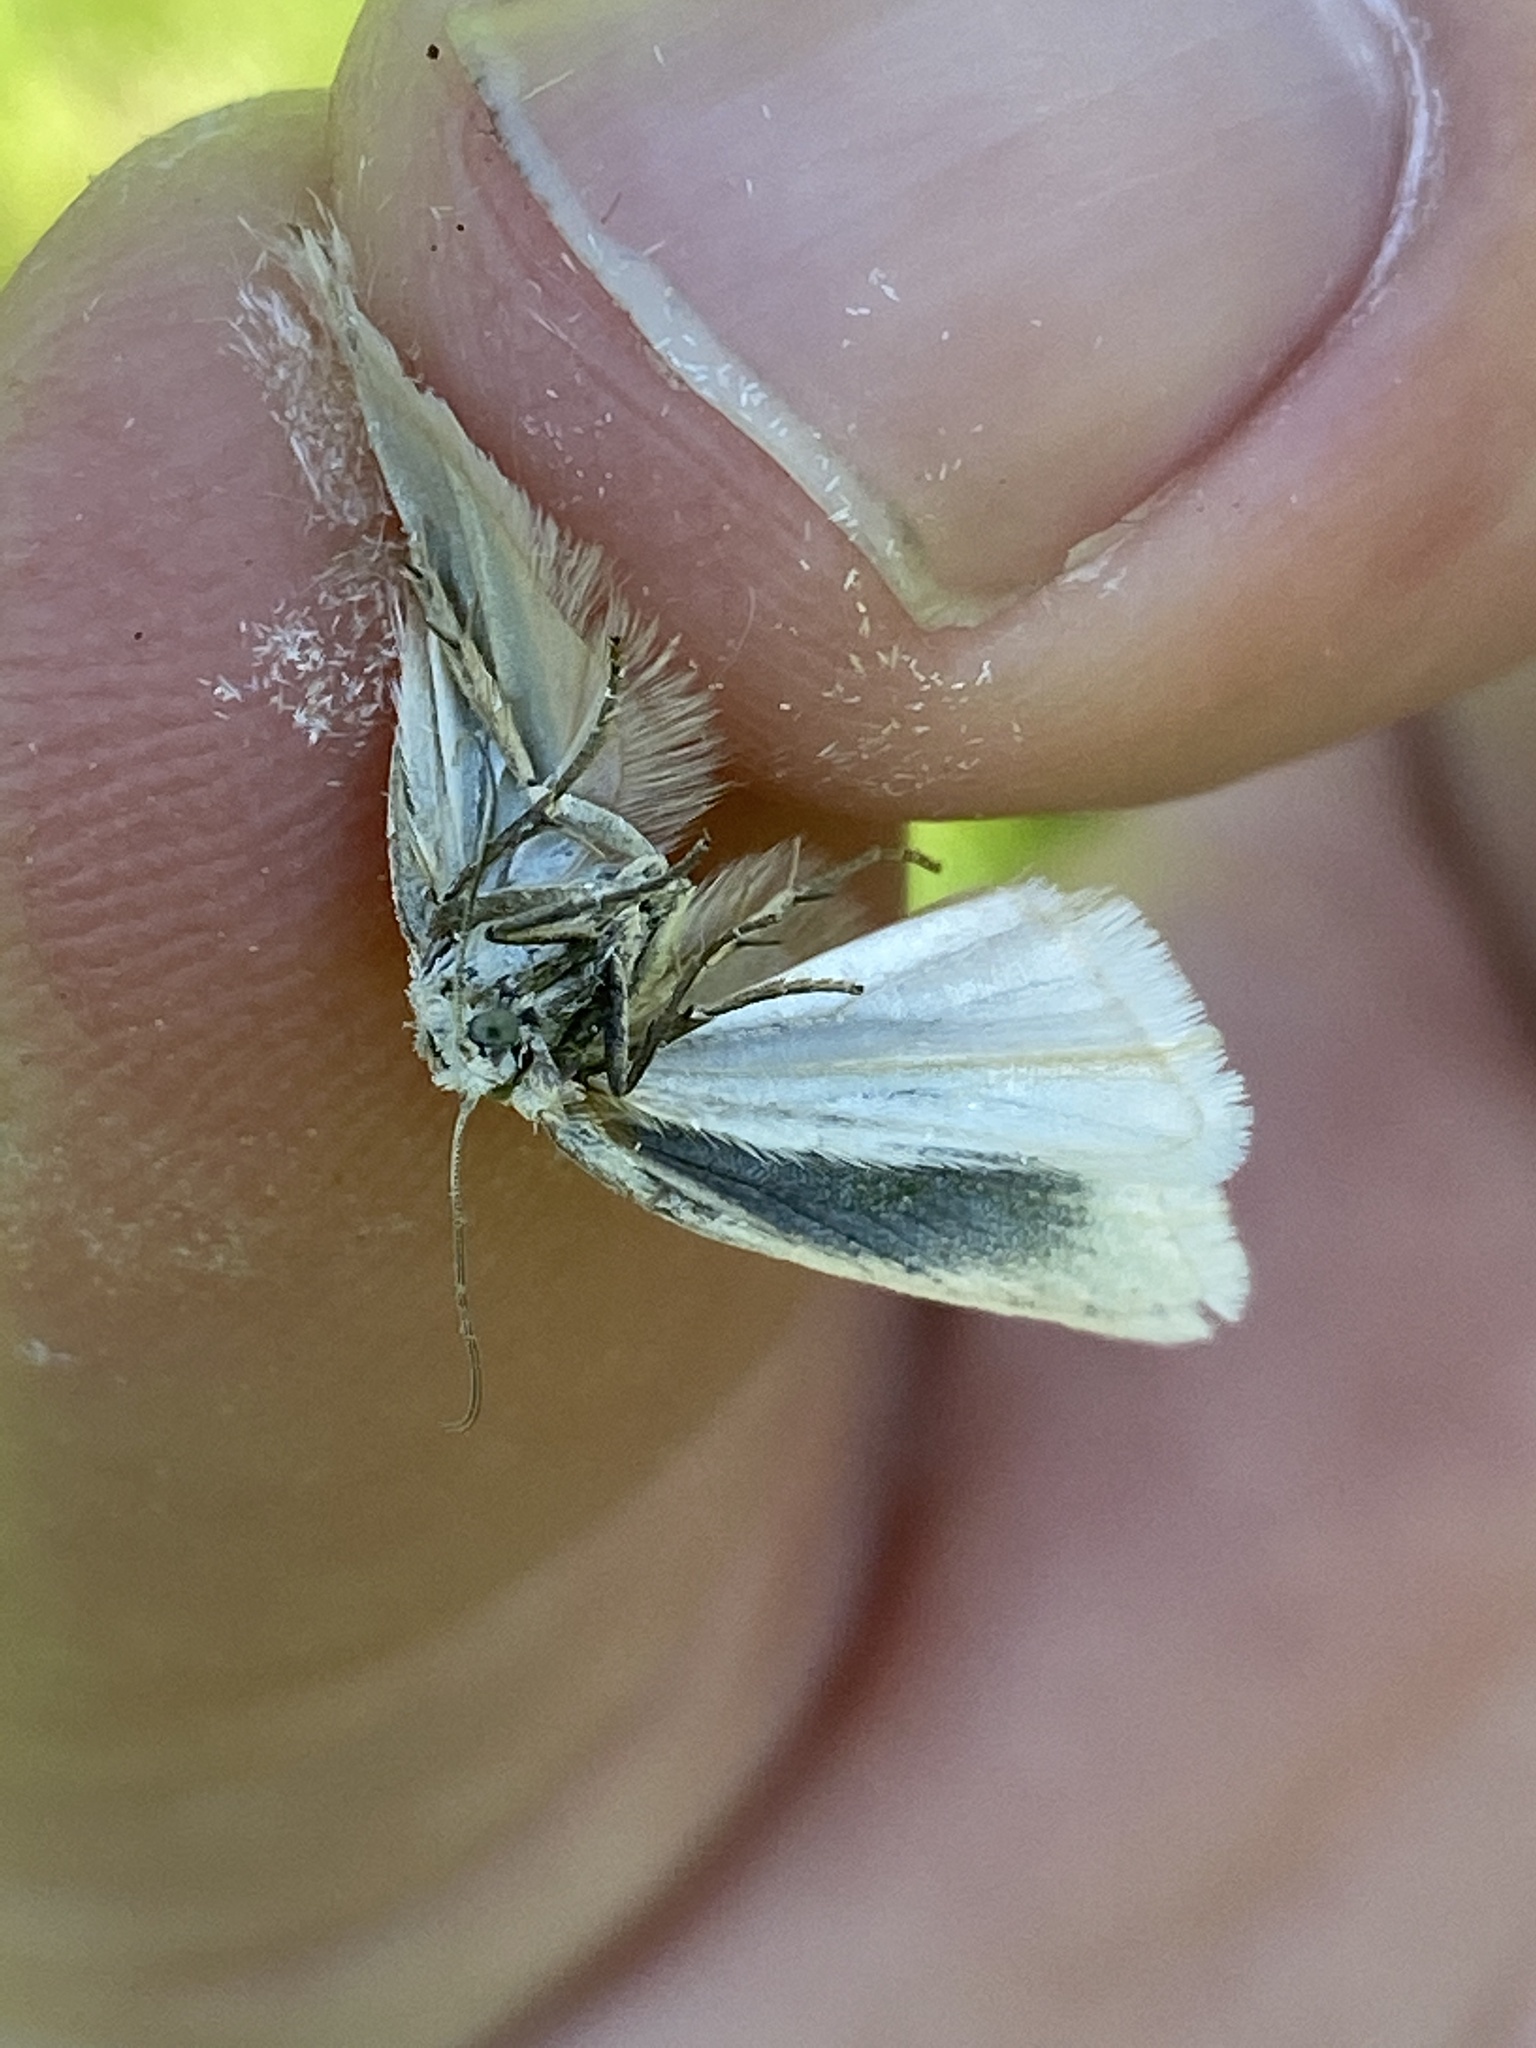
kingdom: Animalia
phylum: Arthropoda
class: Insecta
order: Lepidoptera
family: Tortricidae
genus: Eana
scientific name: Eana argentana
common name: Silver shade
